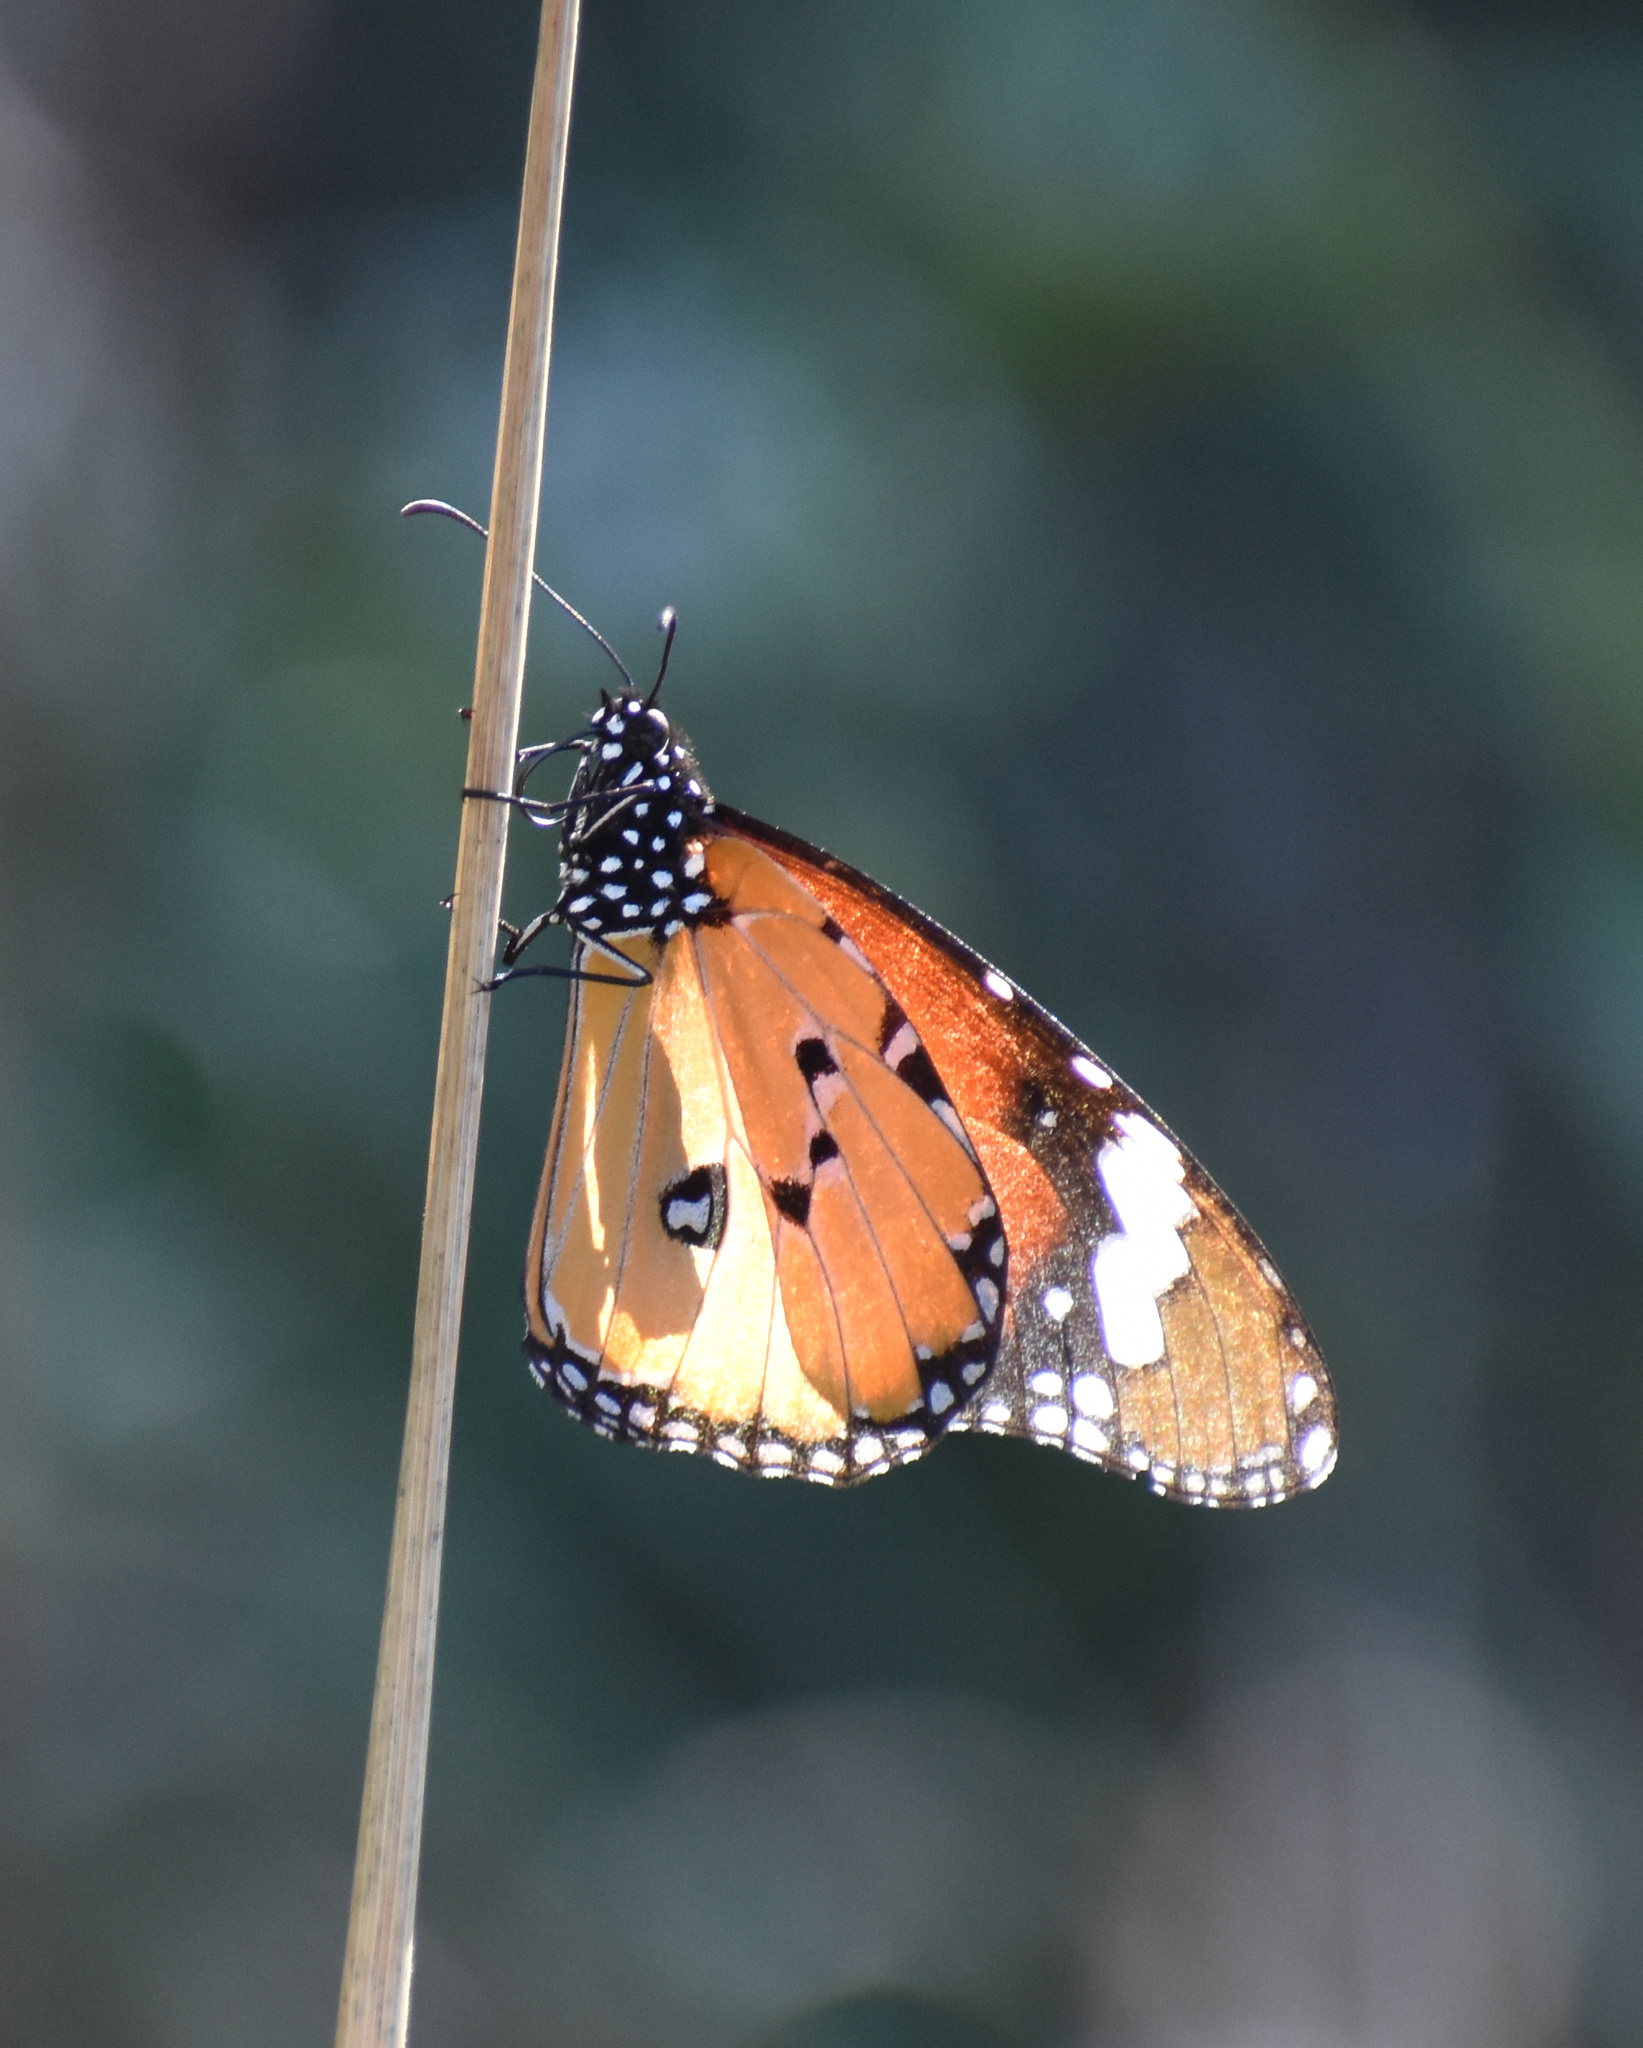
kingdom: Animalia
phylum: Arthropoda
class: Insecta
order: Lepidoptera
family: Nymphalidae
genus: Danaus
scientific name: Danaus chrysippus
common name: Plain tiger
